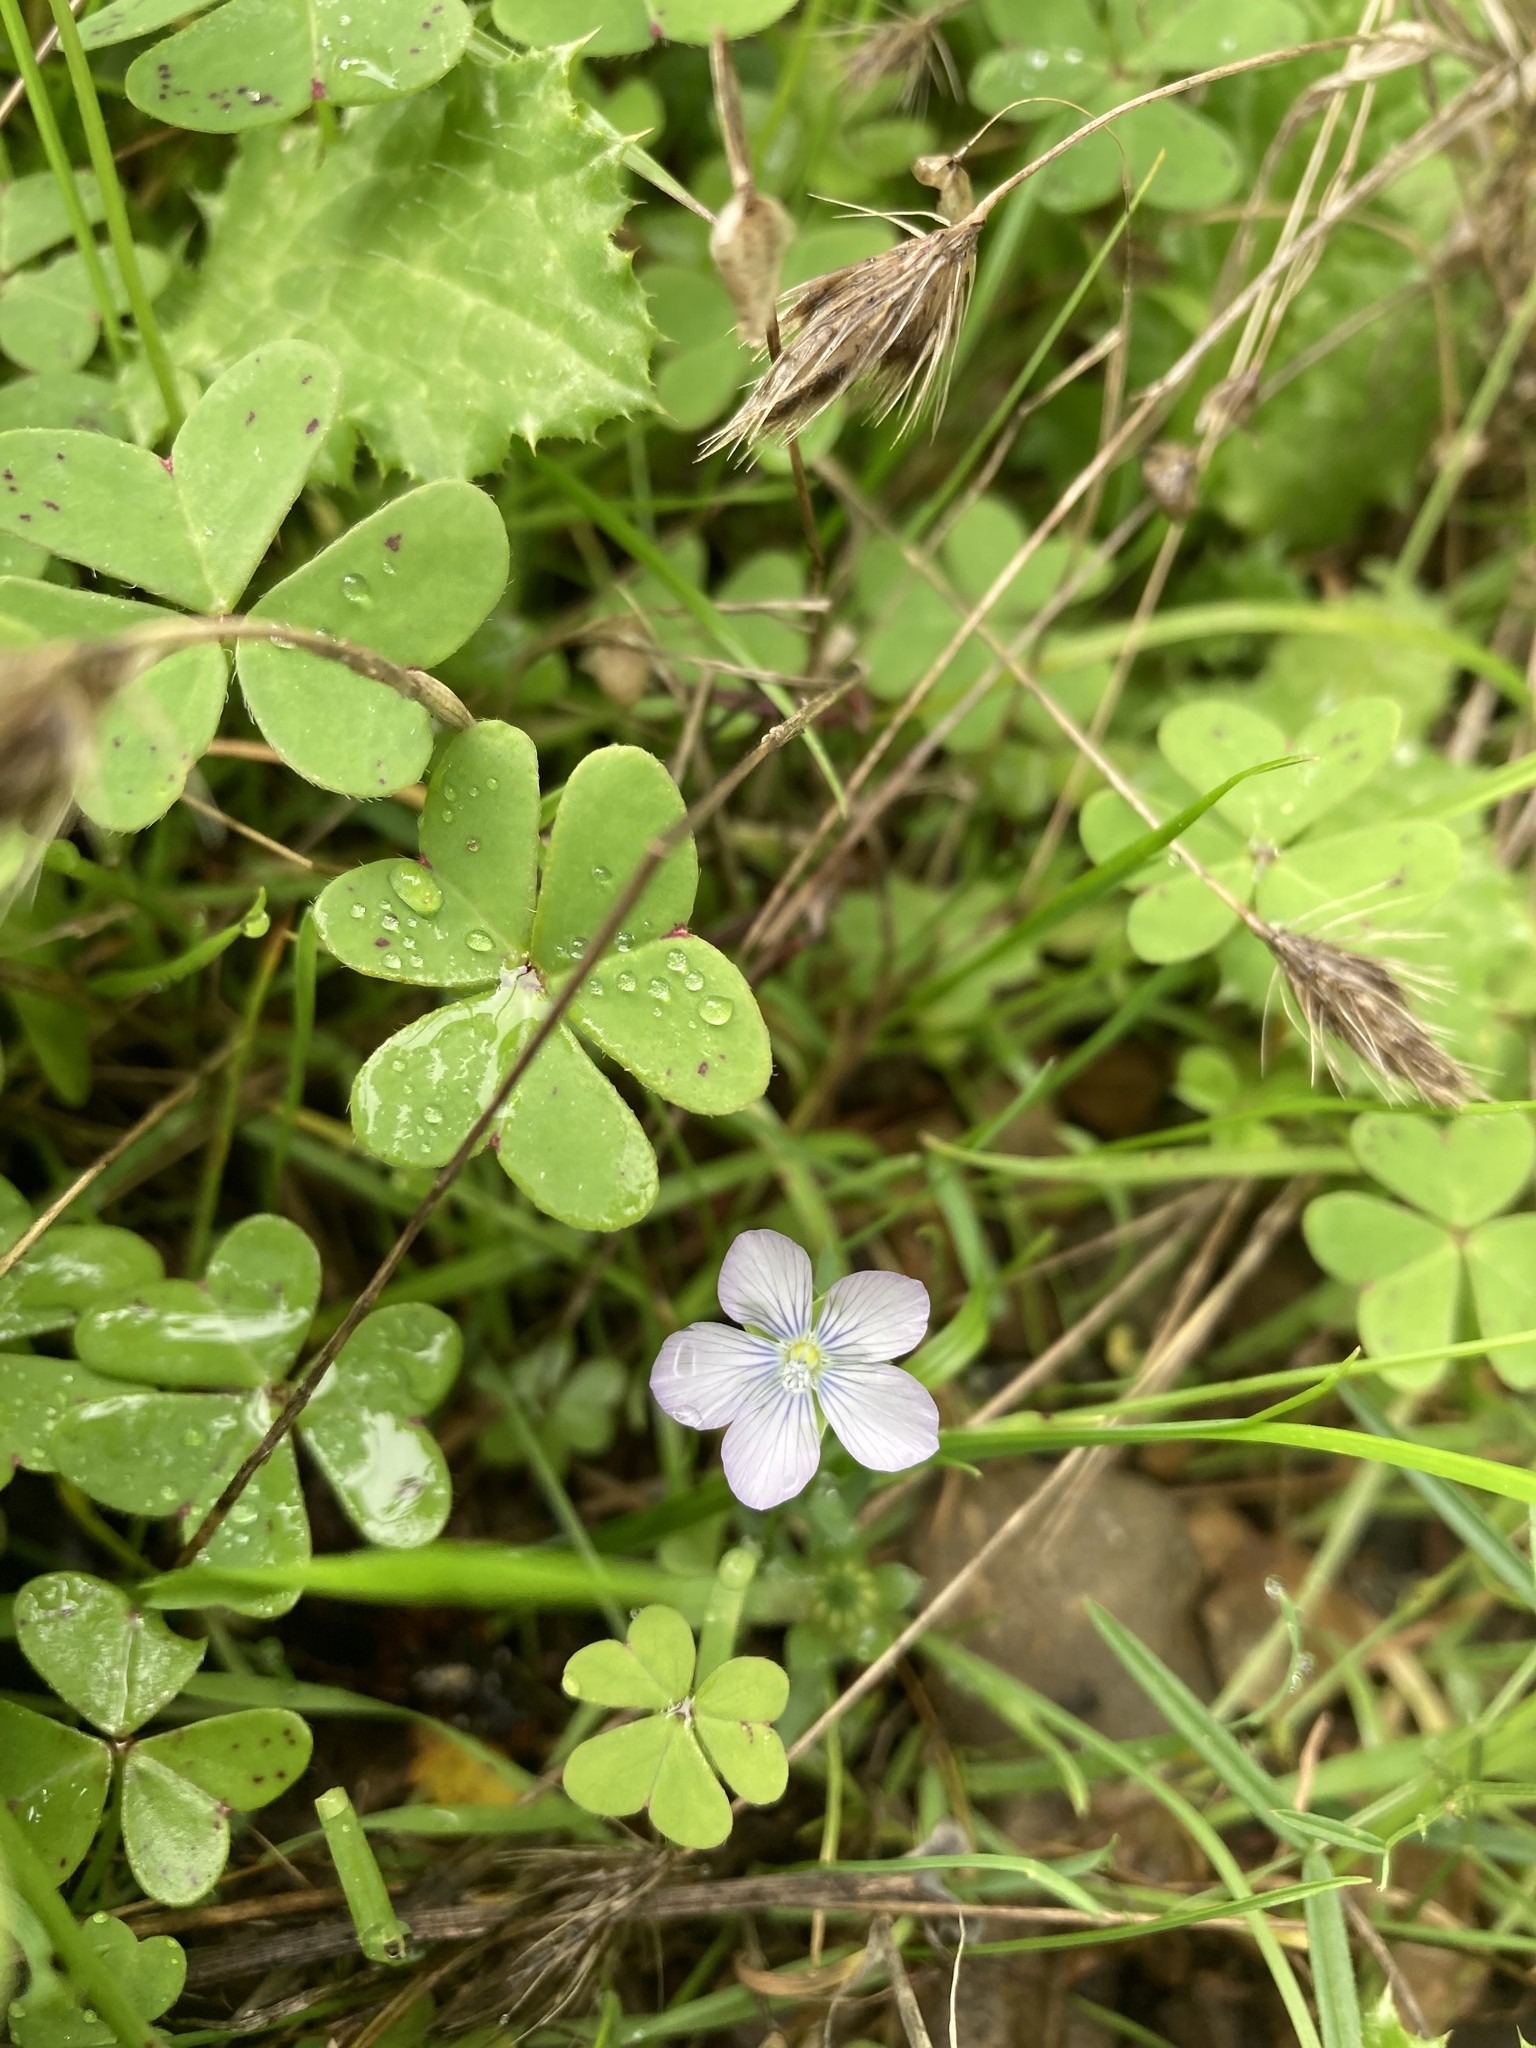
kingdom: Plantae
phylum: Tracheophyta
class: Magnoliopsida
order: Malpighiales
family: Linaceae
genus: Linum
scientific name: Linum bienne
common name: Pale flax
